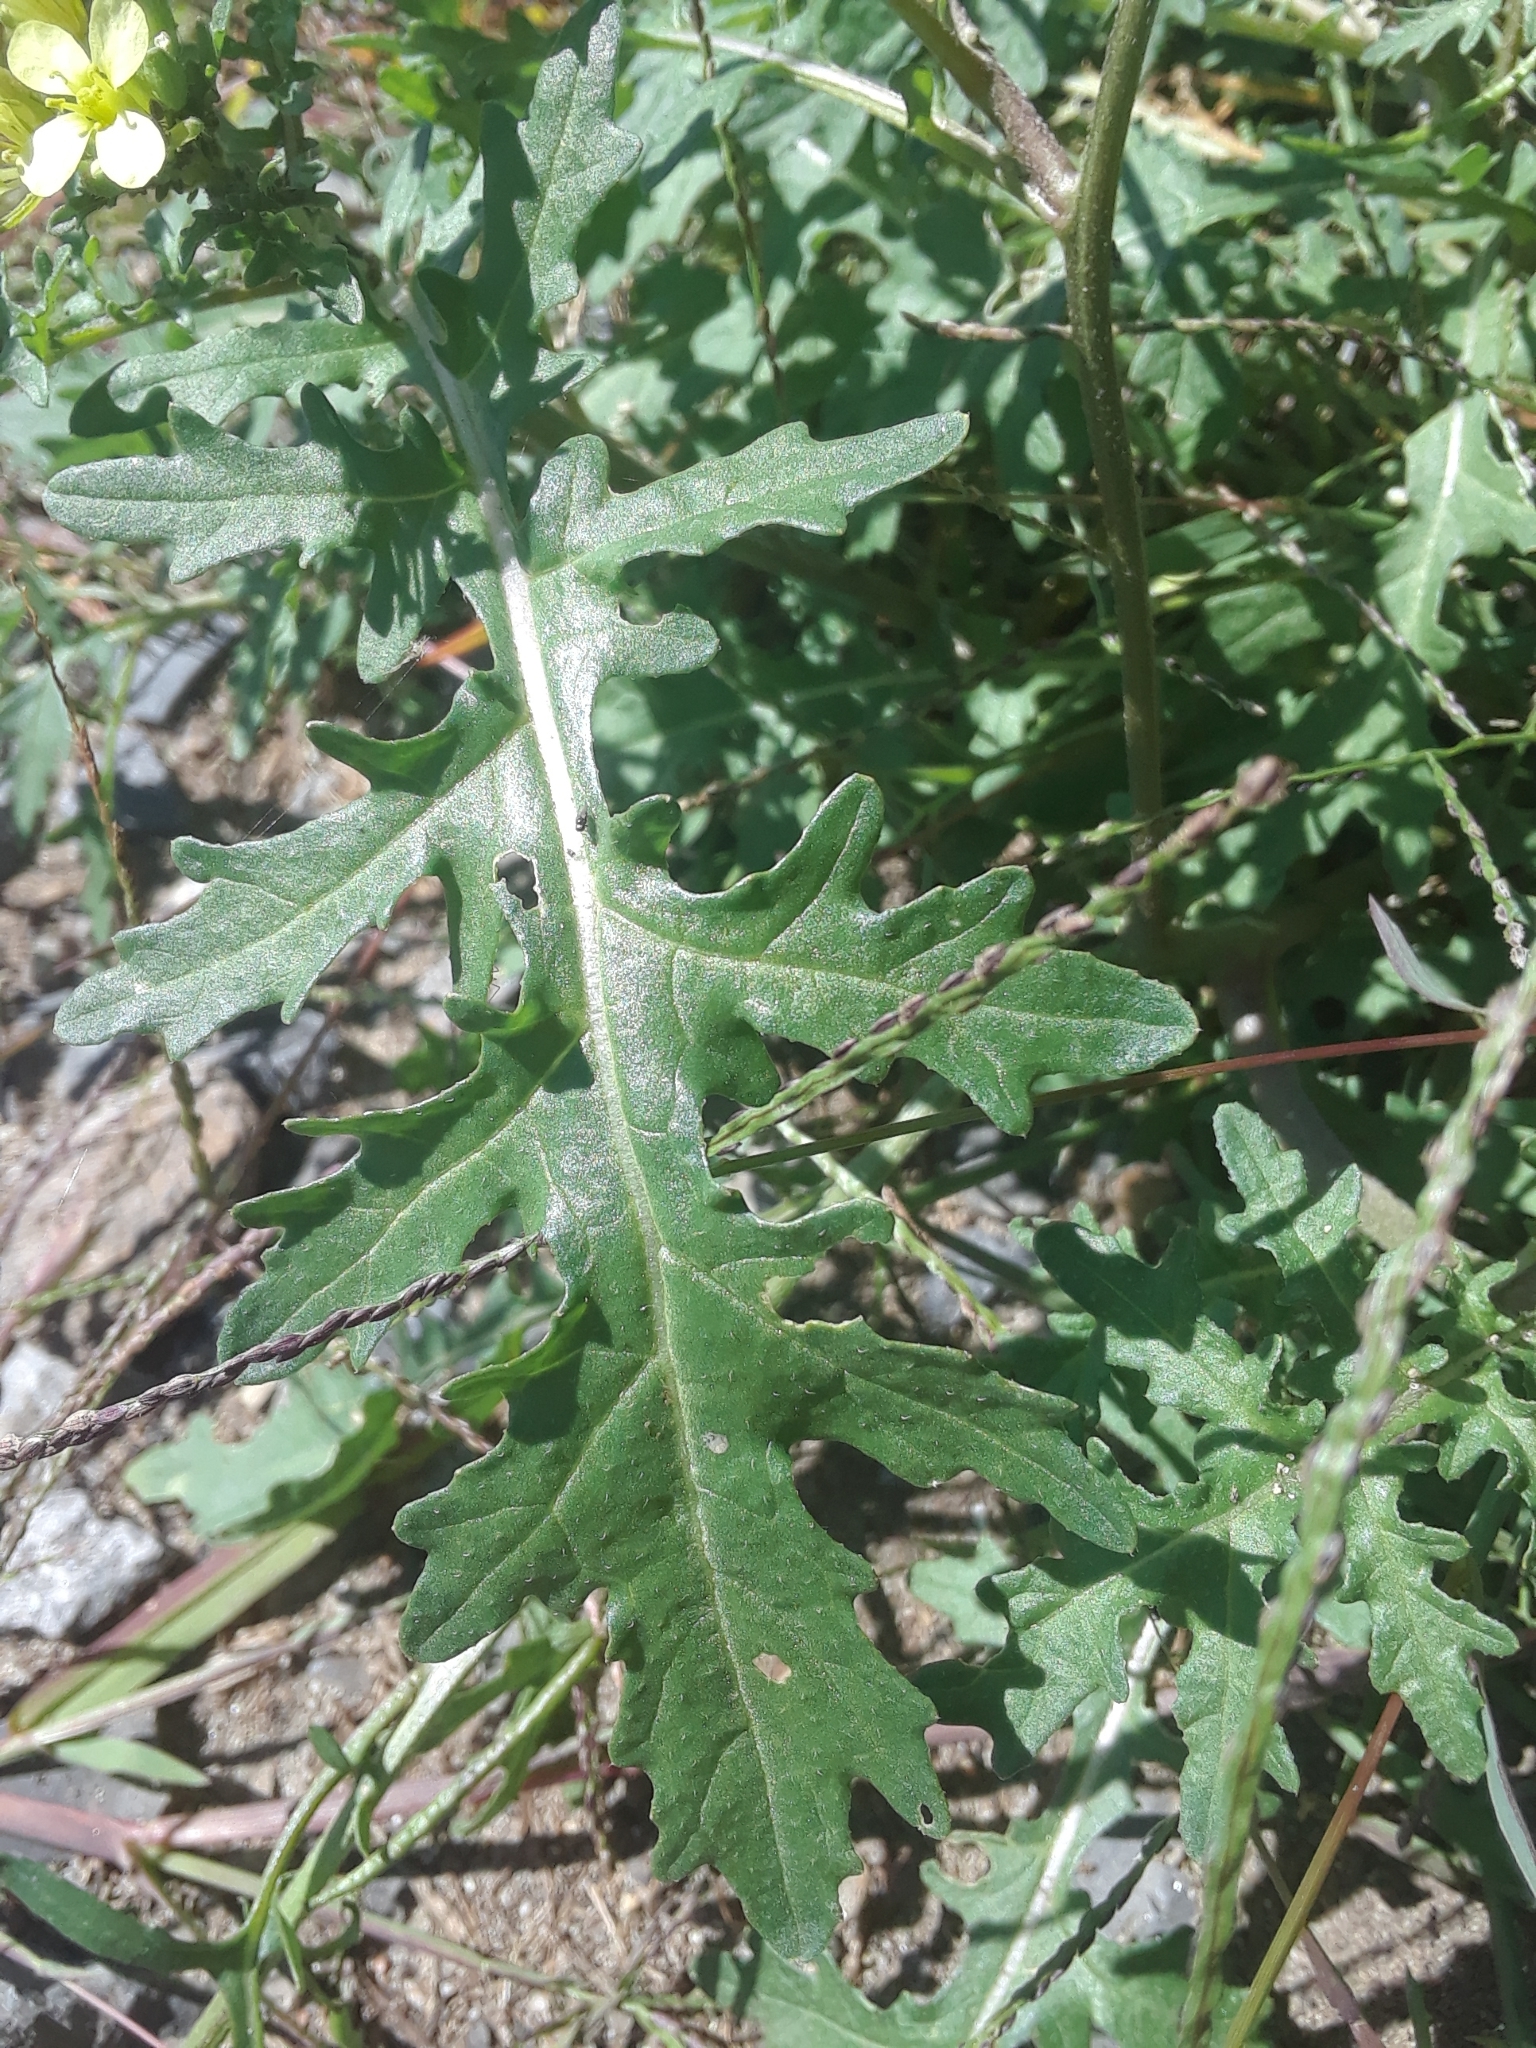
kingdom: Plantae
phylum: Tracheophyta
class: Magnoliopsida
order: Brassicales
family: Brassicaceae
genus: Erucastrum
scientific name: Erucastrum gallicum
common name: Hairy rocket
